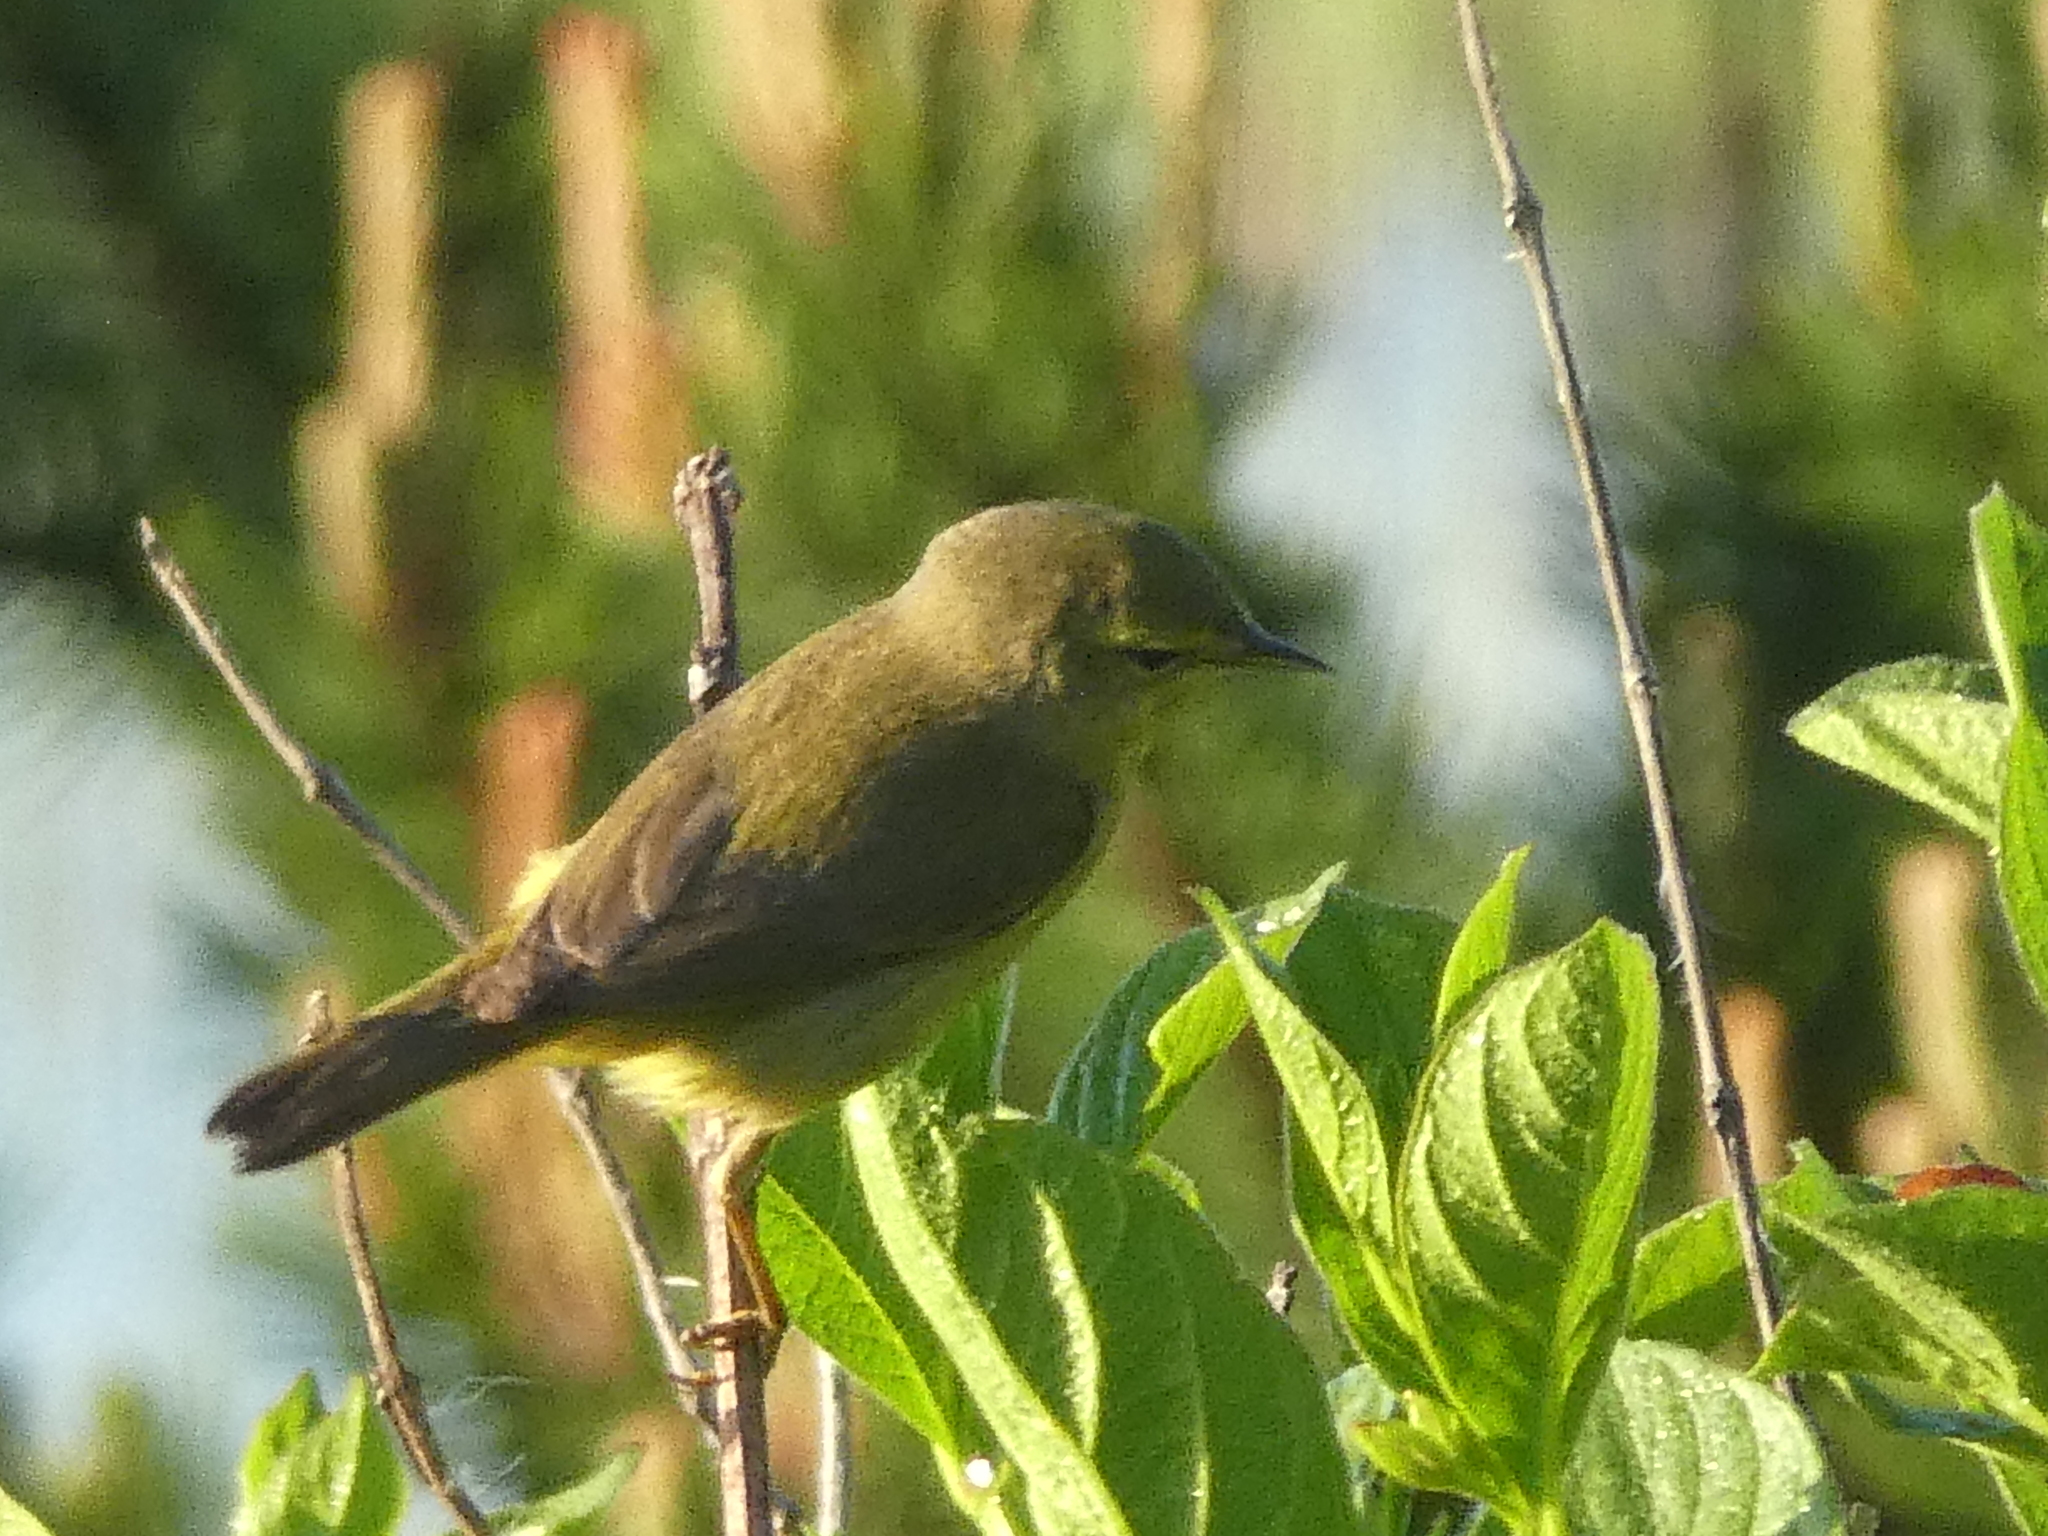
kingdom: Animalia
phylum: Chordata
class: Aves
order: Passeriformes
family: Parulidae
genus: Leiothlypis
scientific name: Leiothlypis celata
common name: Orange-crowned warbler
